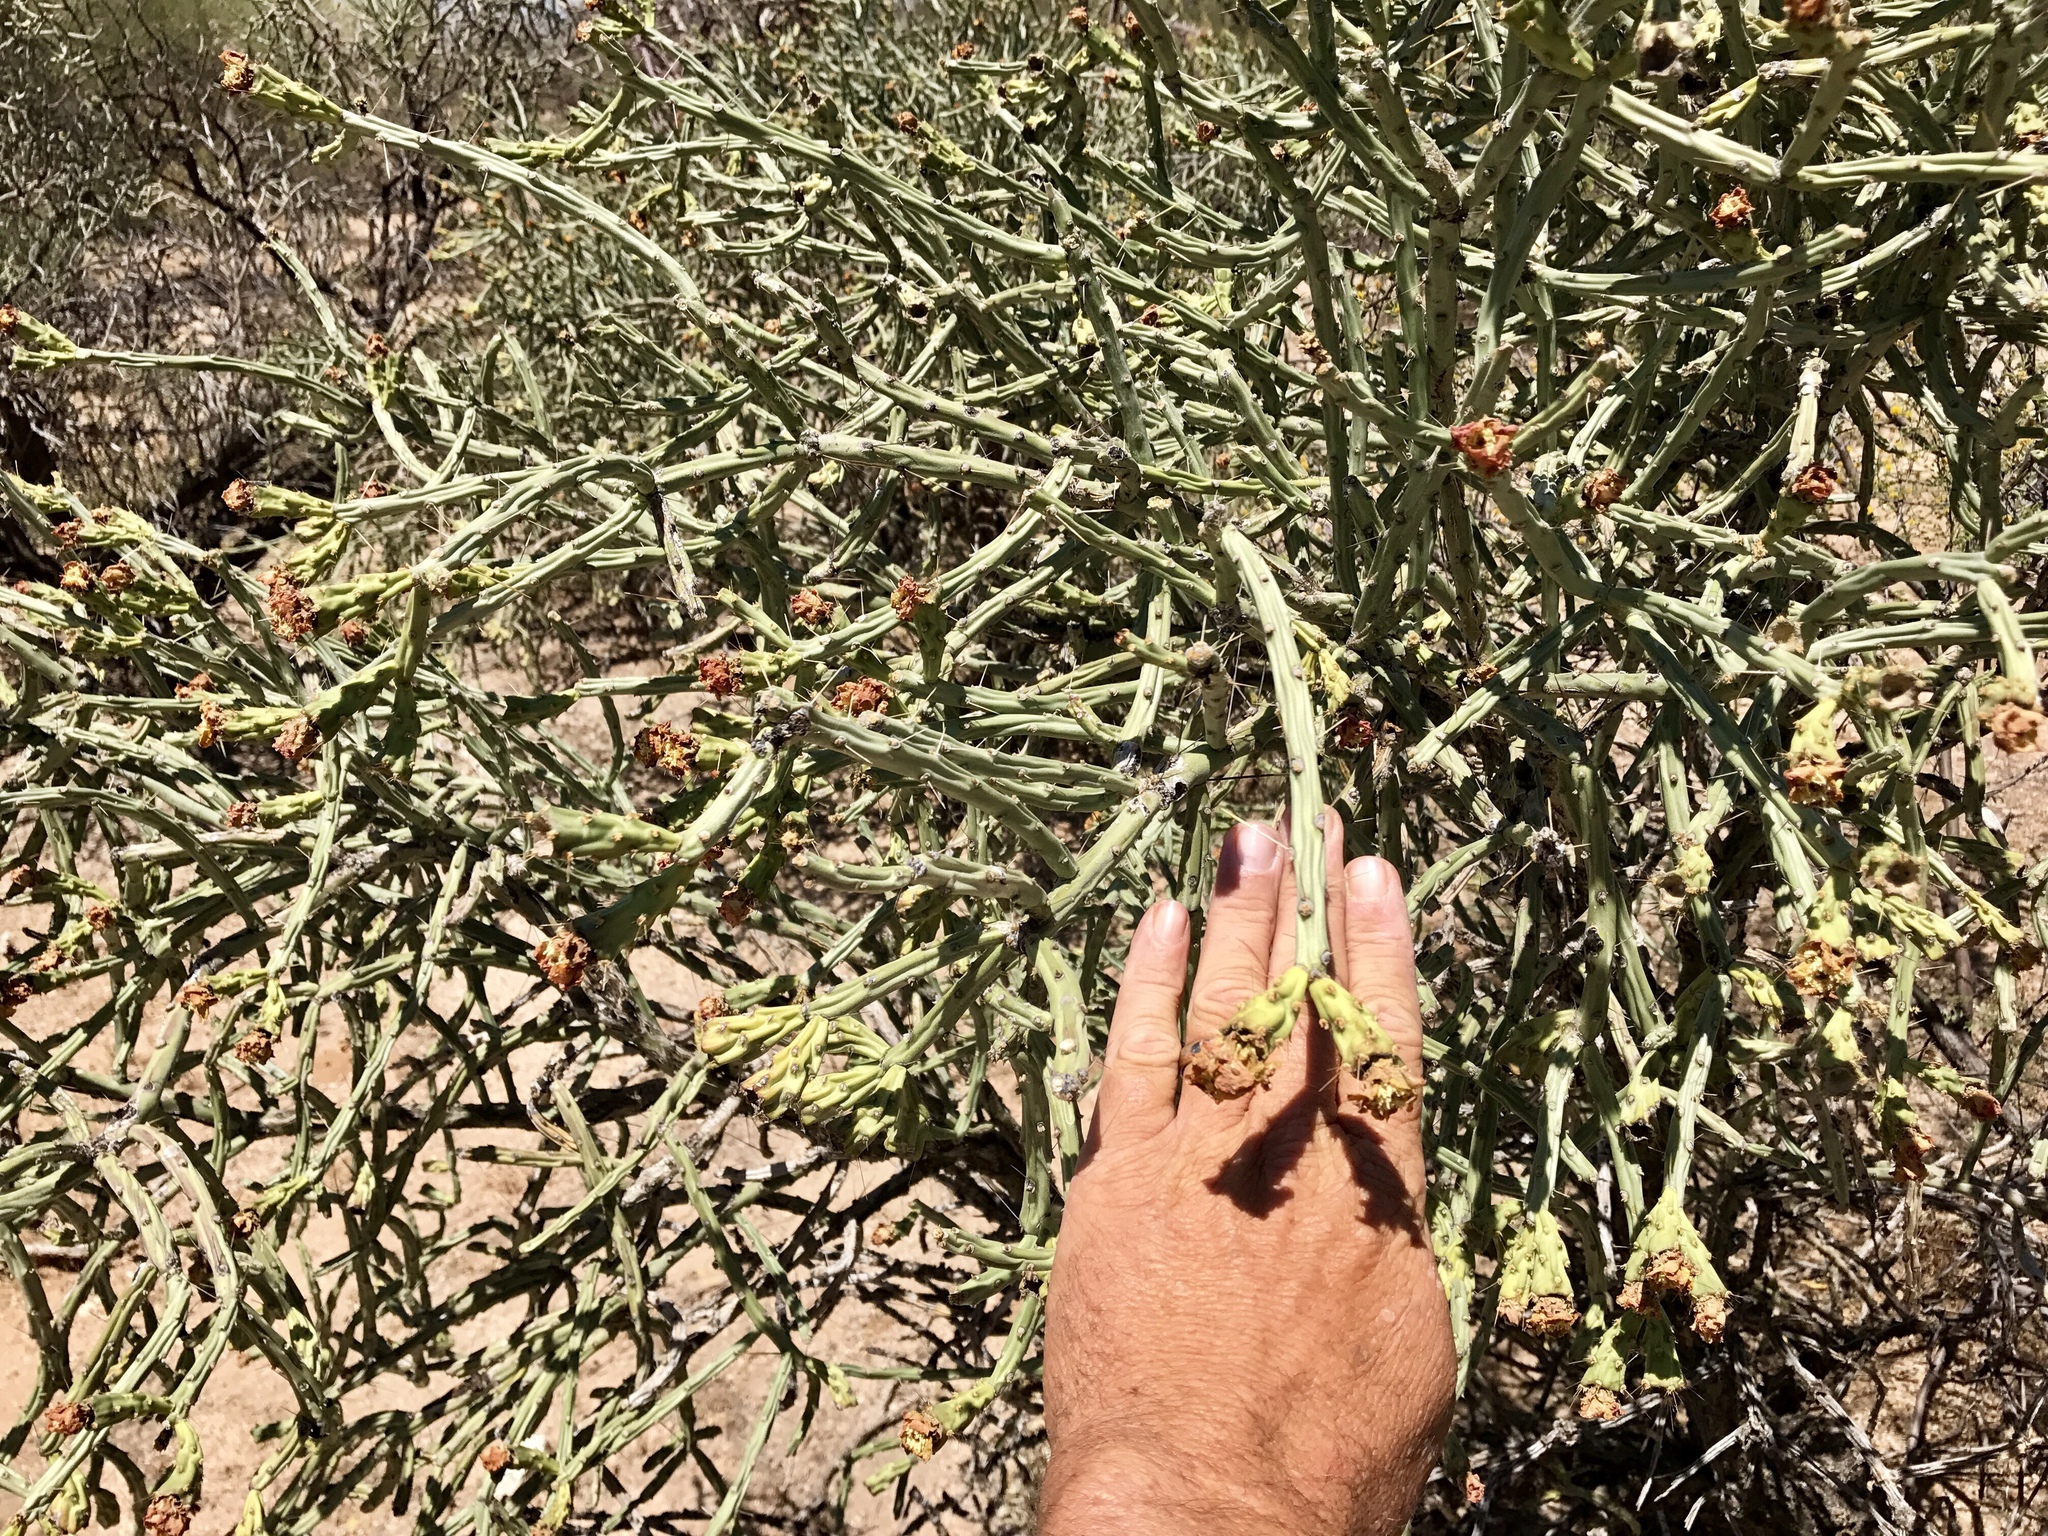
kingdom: Plantae
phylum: Tracheophyta
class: Magnoliopsida
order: Caryophyllales
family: Cactaceae
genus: Cylindropuntia
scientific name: Cylindropuntia arbuscula
